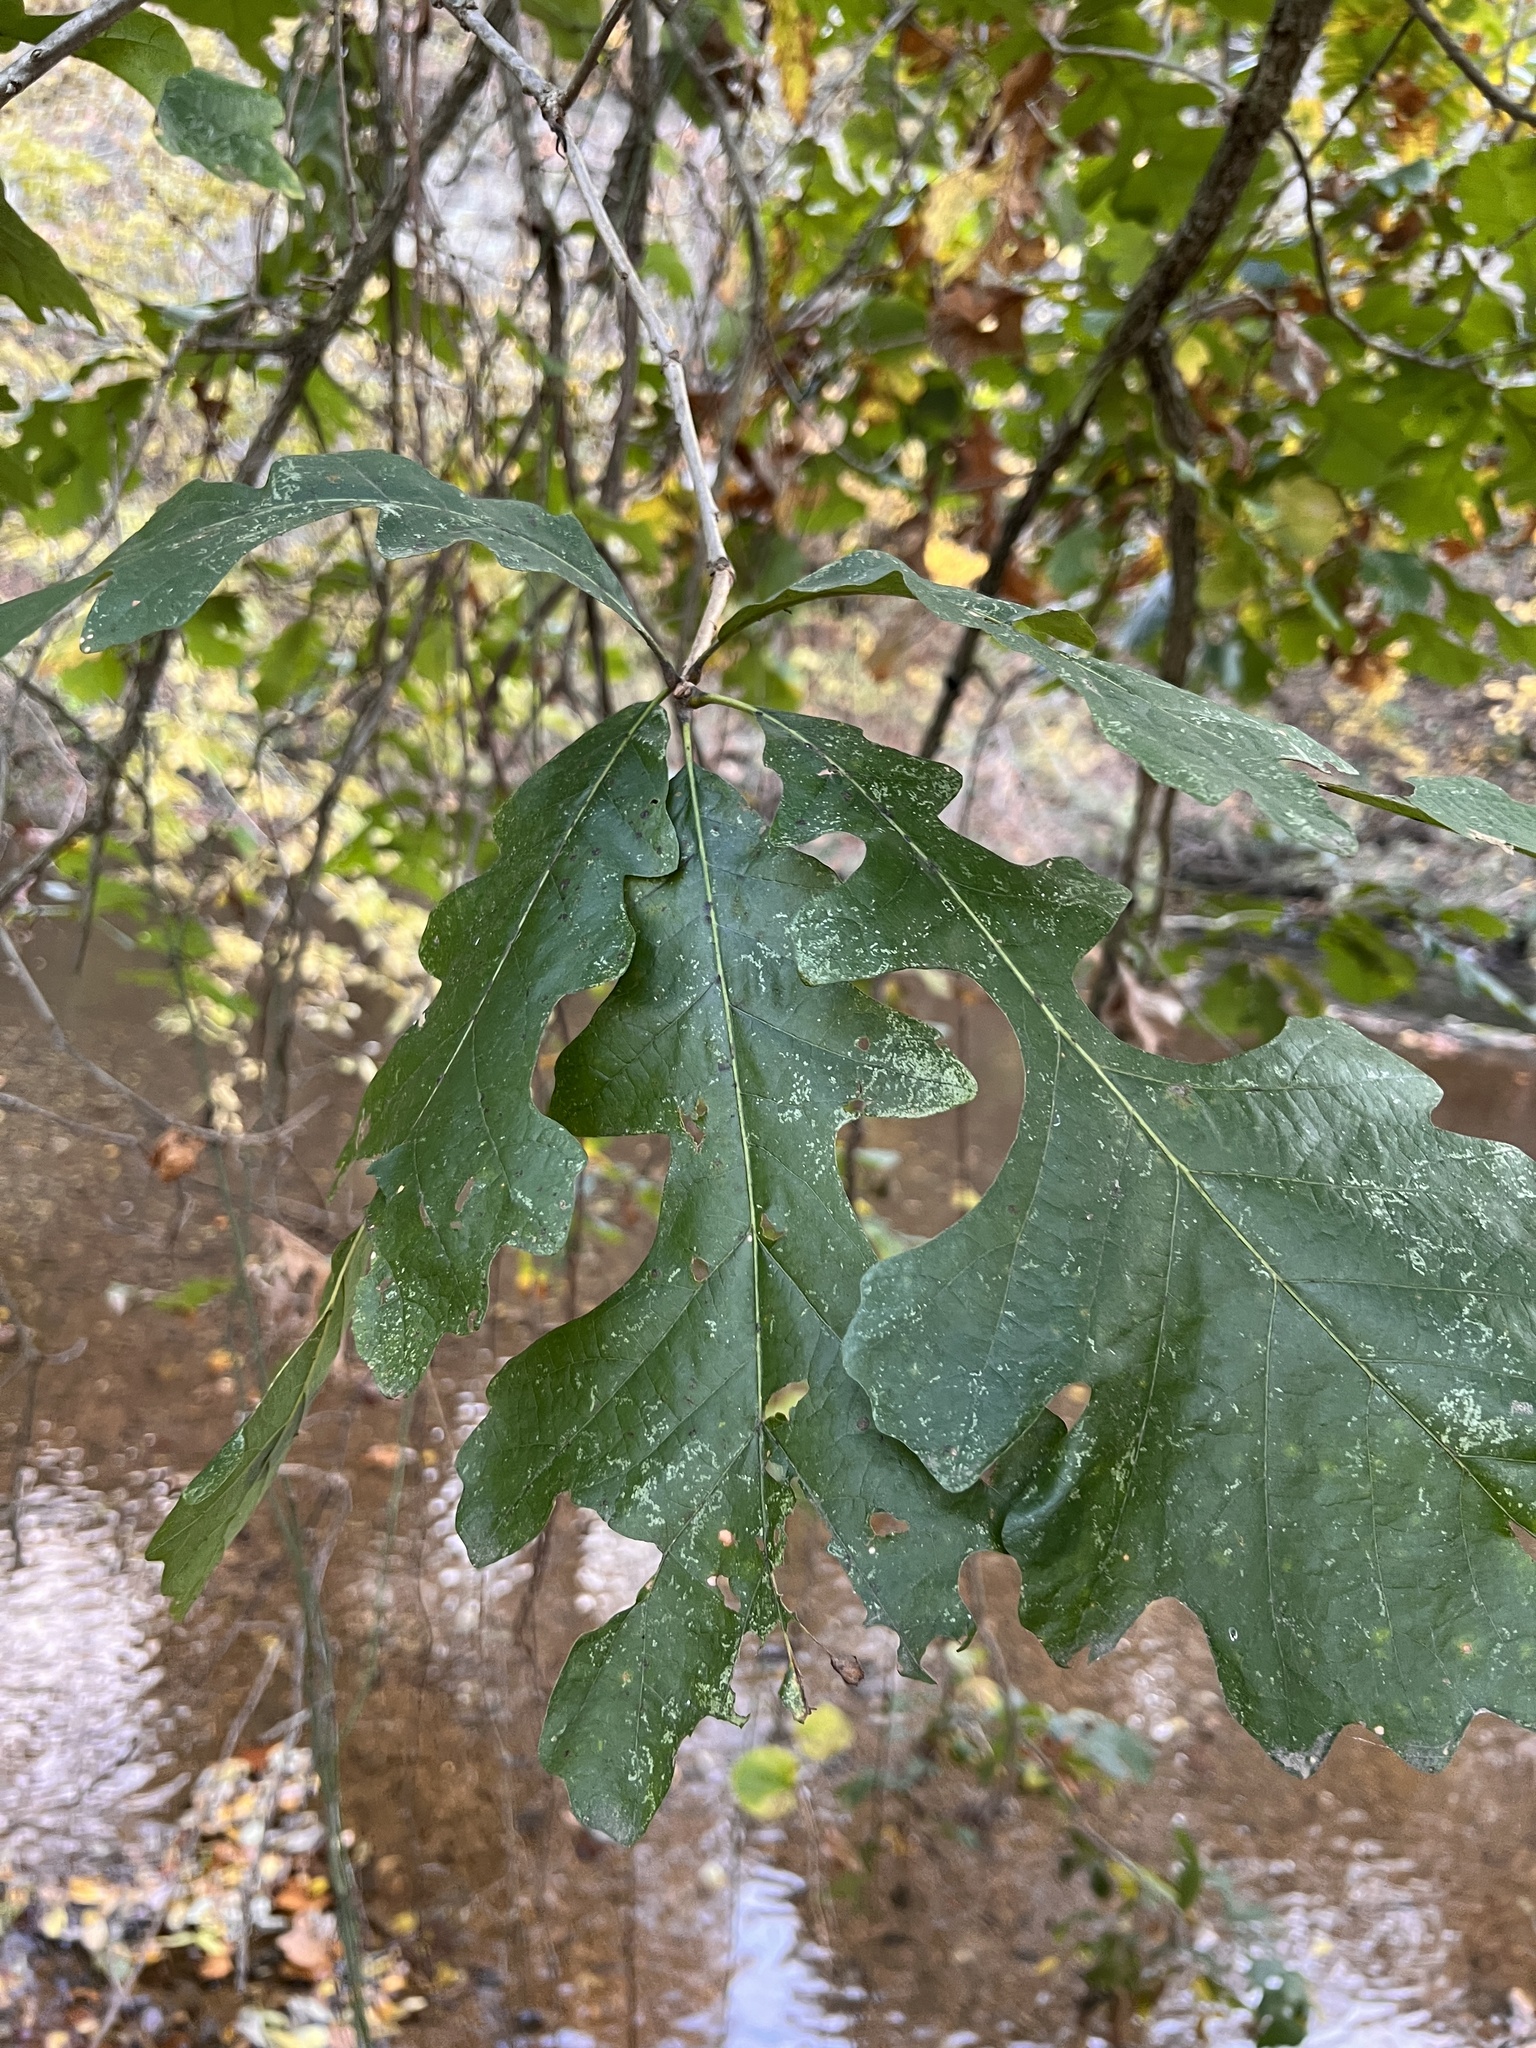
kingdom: Plantae
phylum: Tracheophyta
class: Magnoliopsida
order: Fagales
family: Fagaceae
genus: Quercus
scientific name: Quercus macrocarpa
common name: Bur oak
